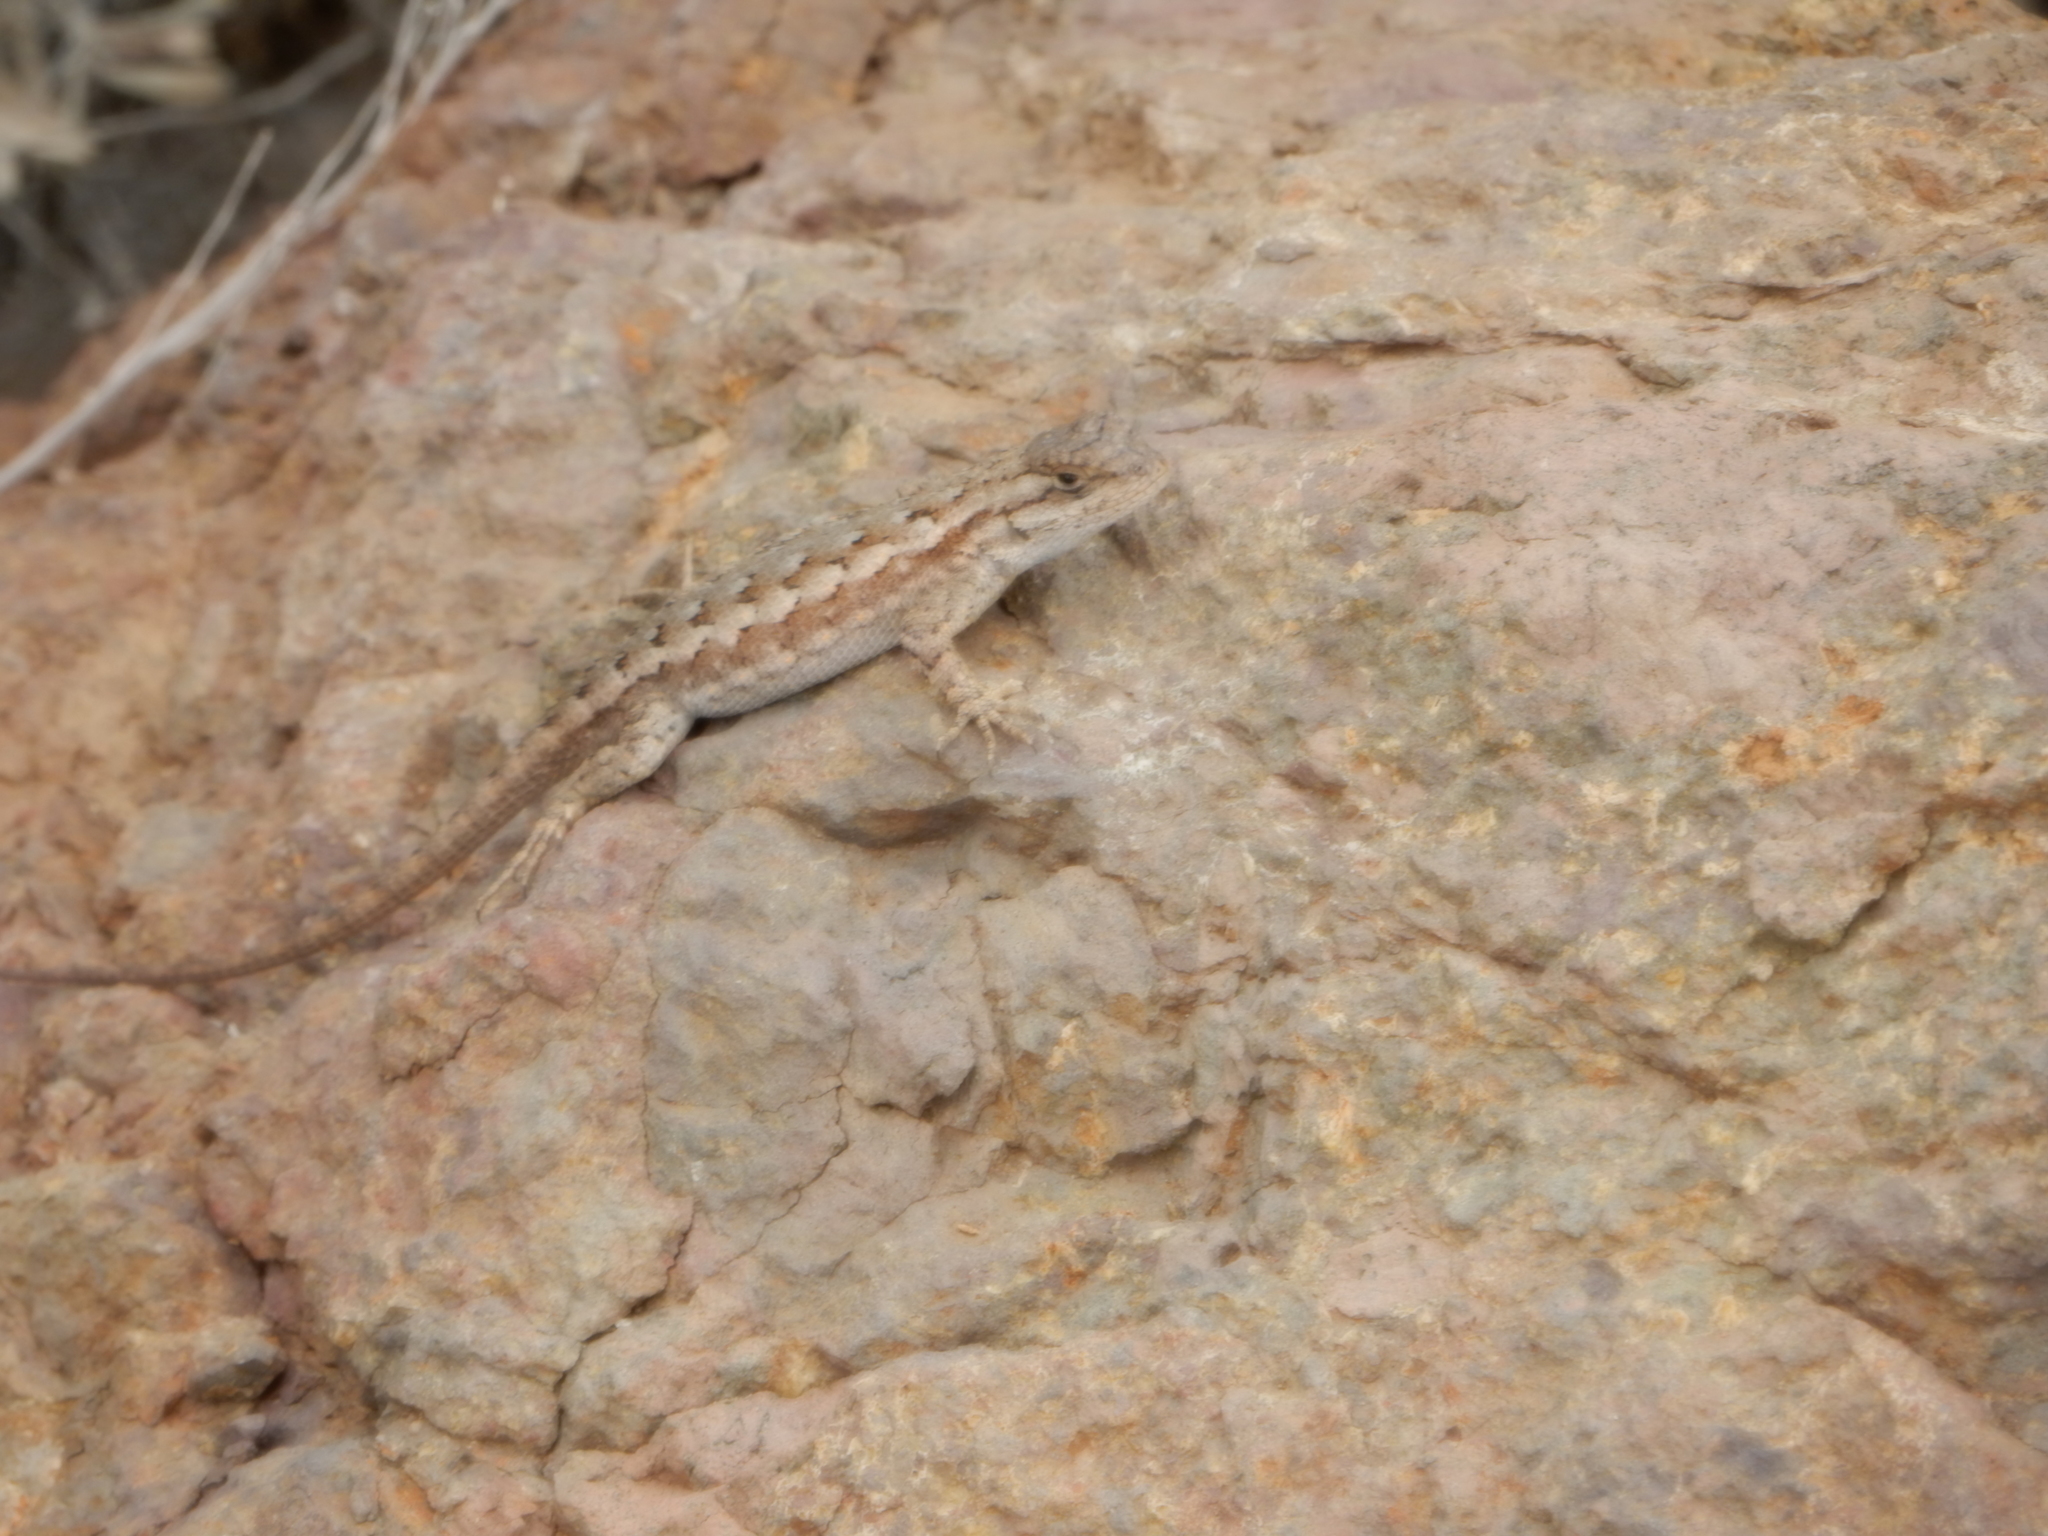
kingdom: Animalia
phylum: Chordata
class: Squamata
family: Phrynosomatidae
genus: Sceloporus
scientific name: Sceloporus occidentalis
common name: Western fence lizard
